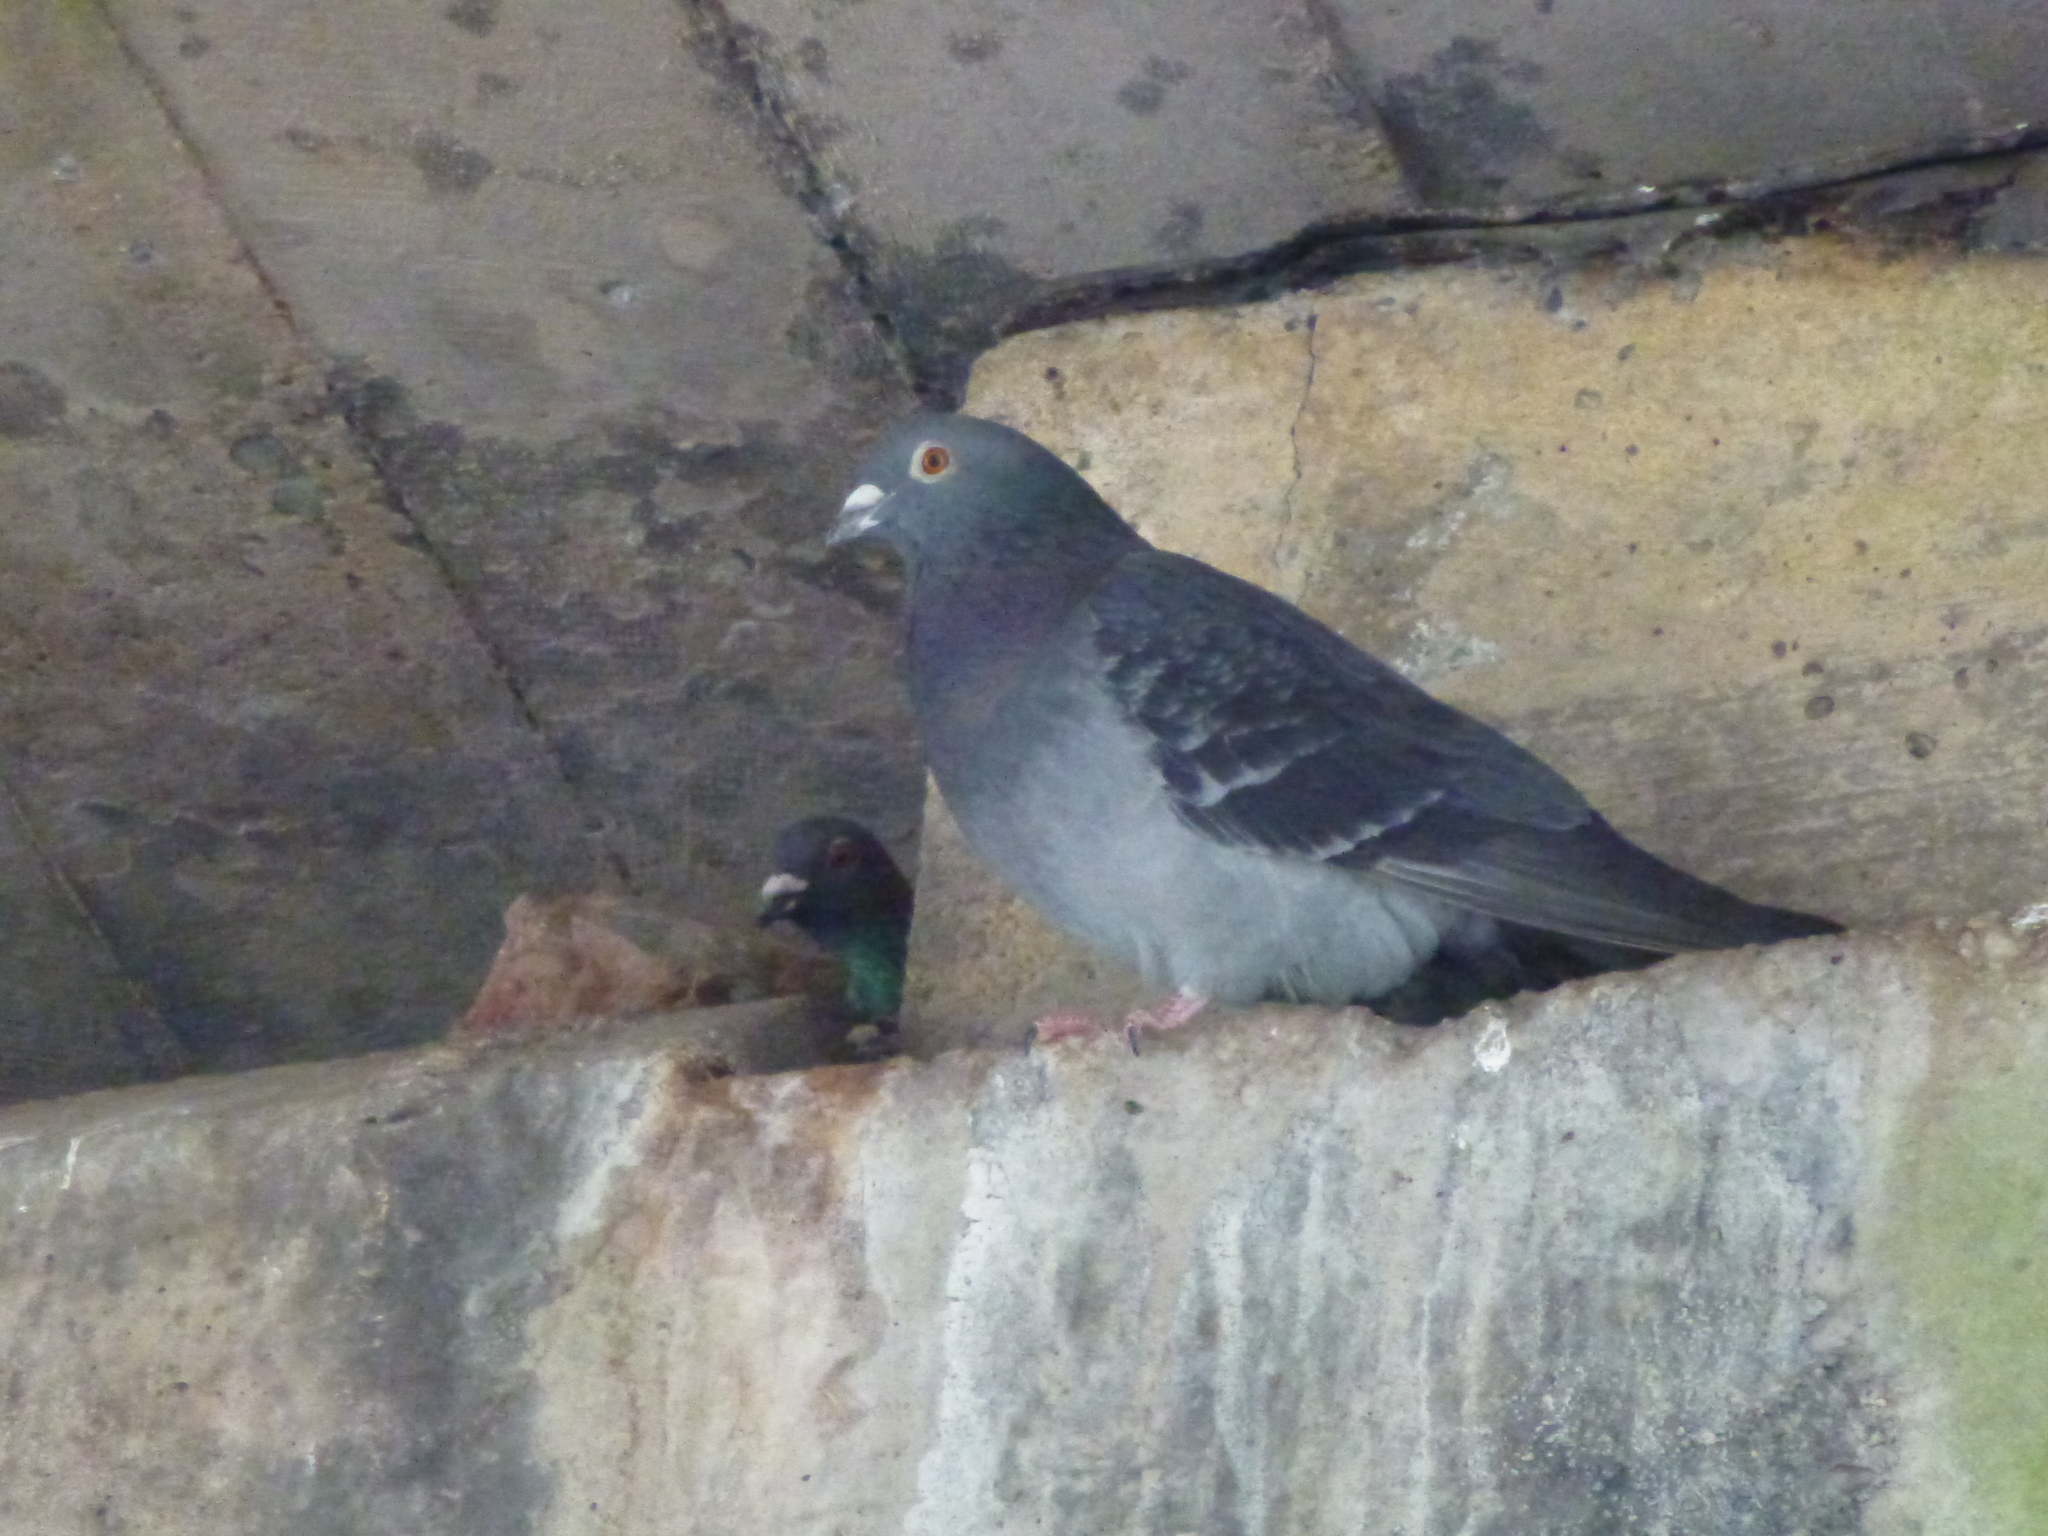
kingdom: Animalia
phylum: Chordata
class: Aves
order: Columbiformes
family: Columbidae
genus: Columba
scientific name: Columba livia
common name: Rock pigeon
